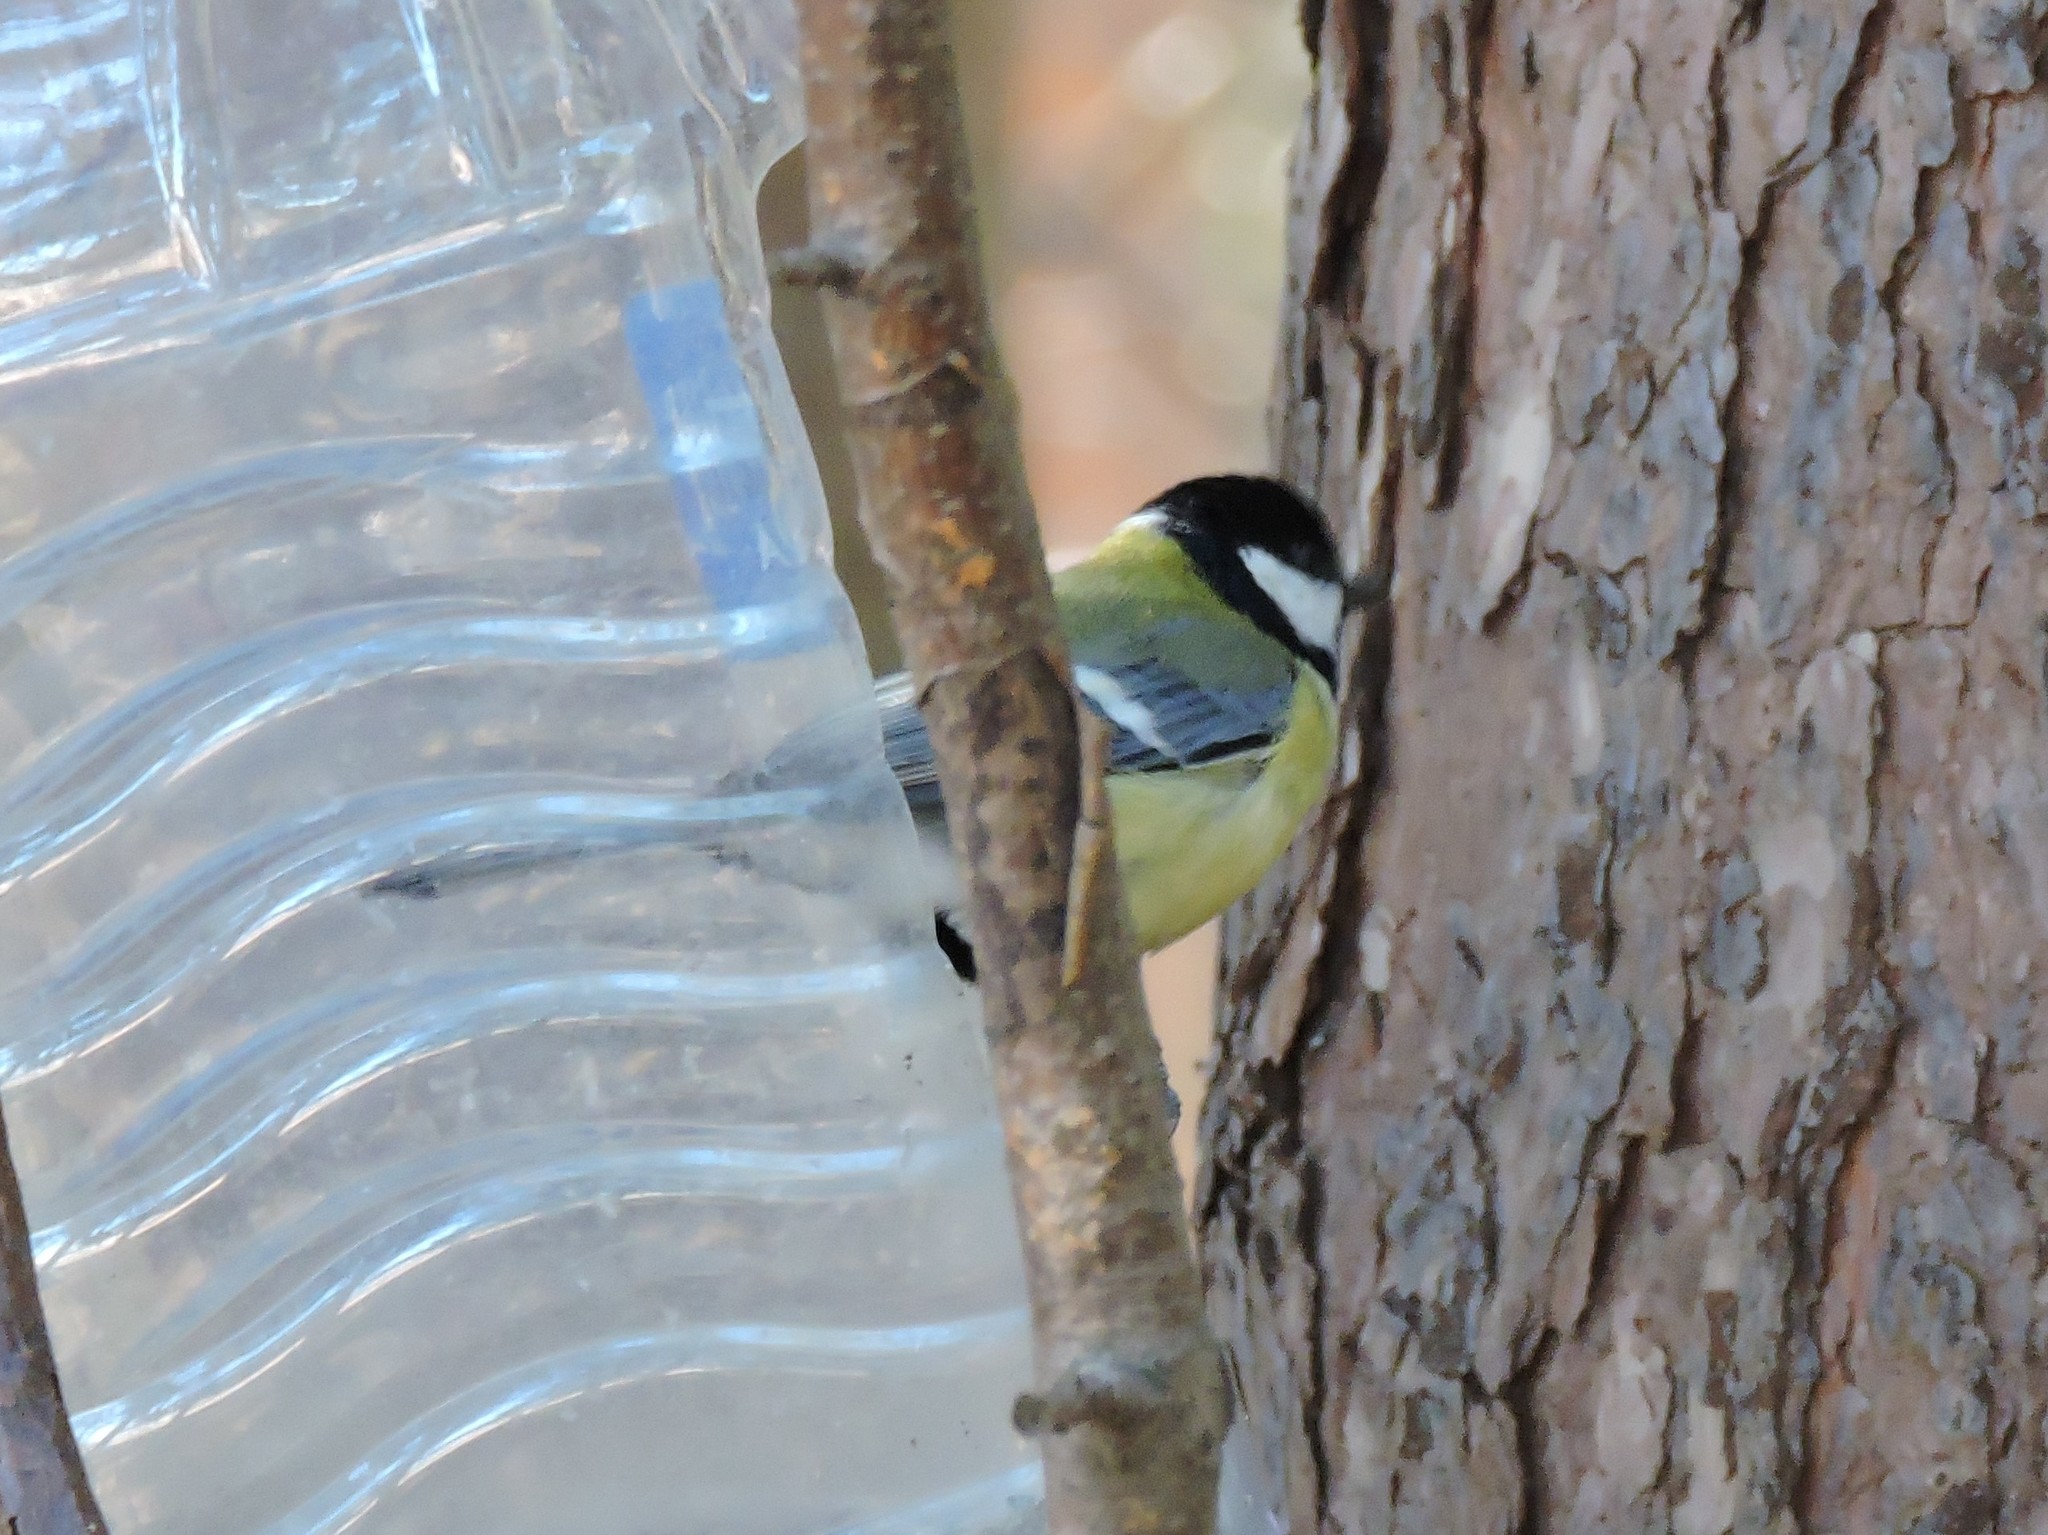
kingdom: Animalia
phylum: Chordata
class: Aves
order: Passeriformes
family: Paridae
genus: Parus
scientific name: Parus major
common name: Great tit
